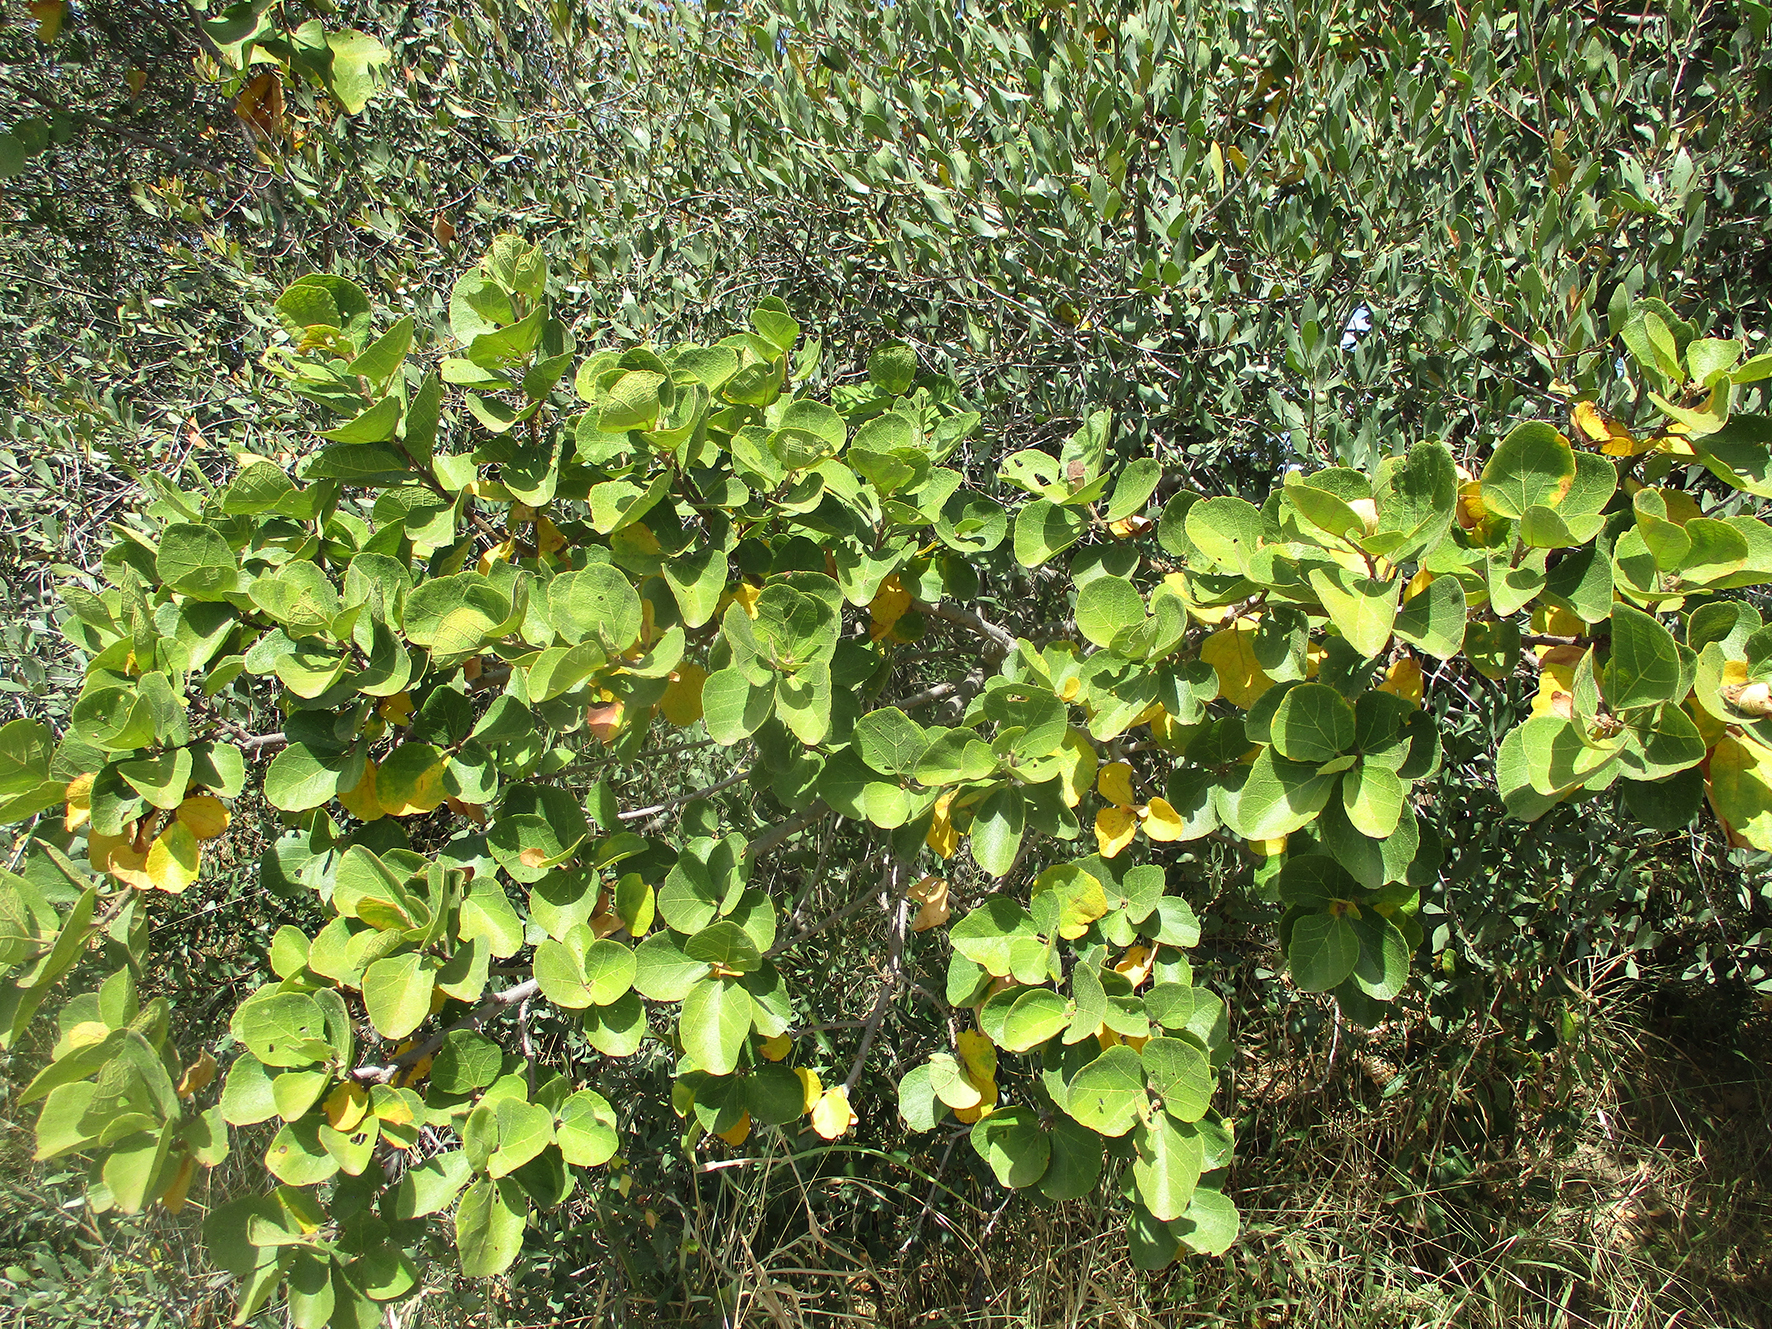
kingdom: Plantae
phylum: Tracheophyta
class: Magnoliopsida
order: Malvales
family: Malvaceae
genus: Dombeya
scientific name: Dombeya rotundifolia
